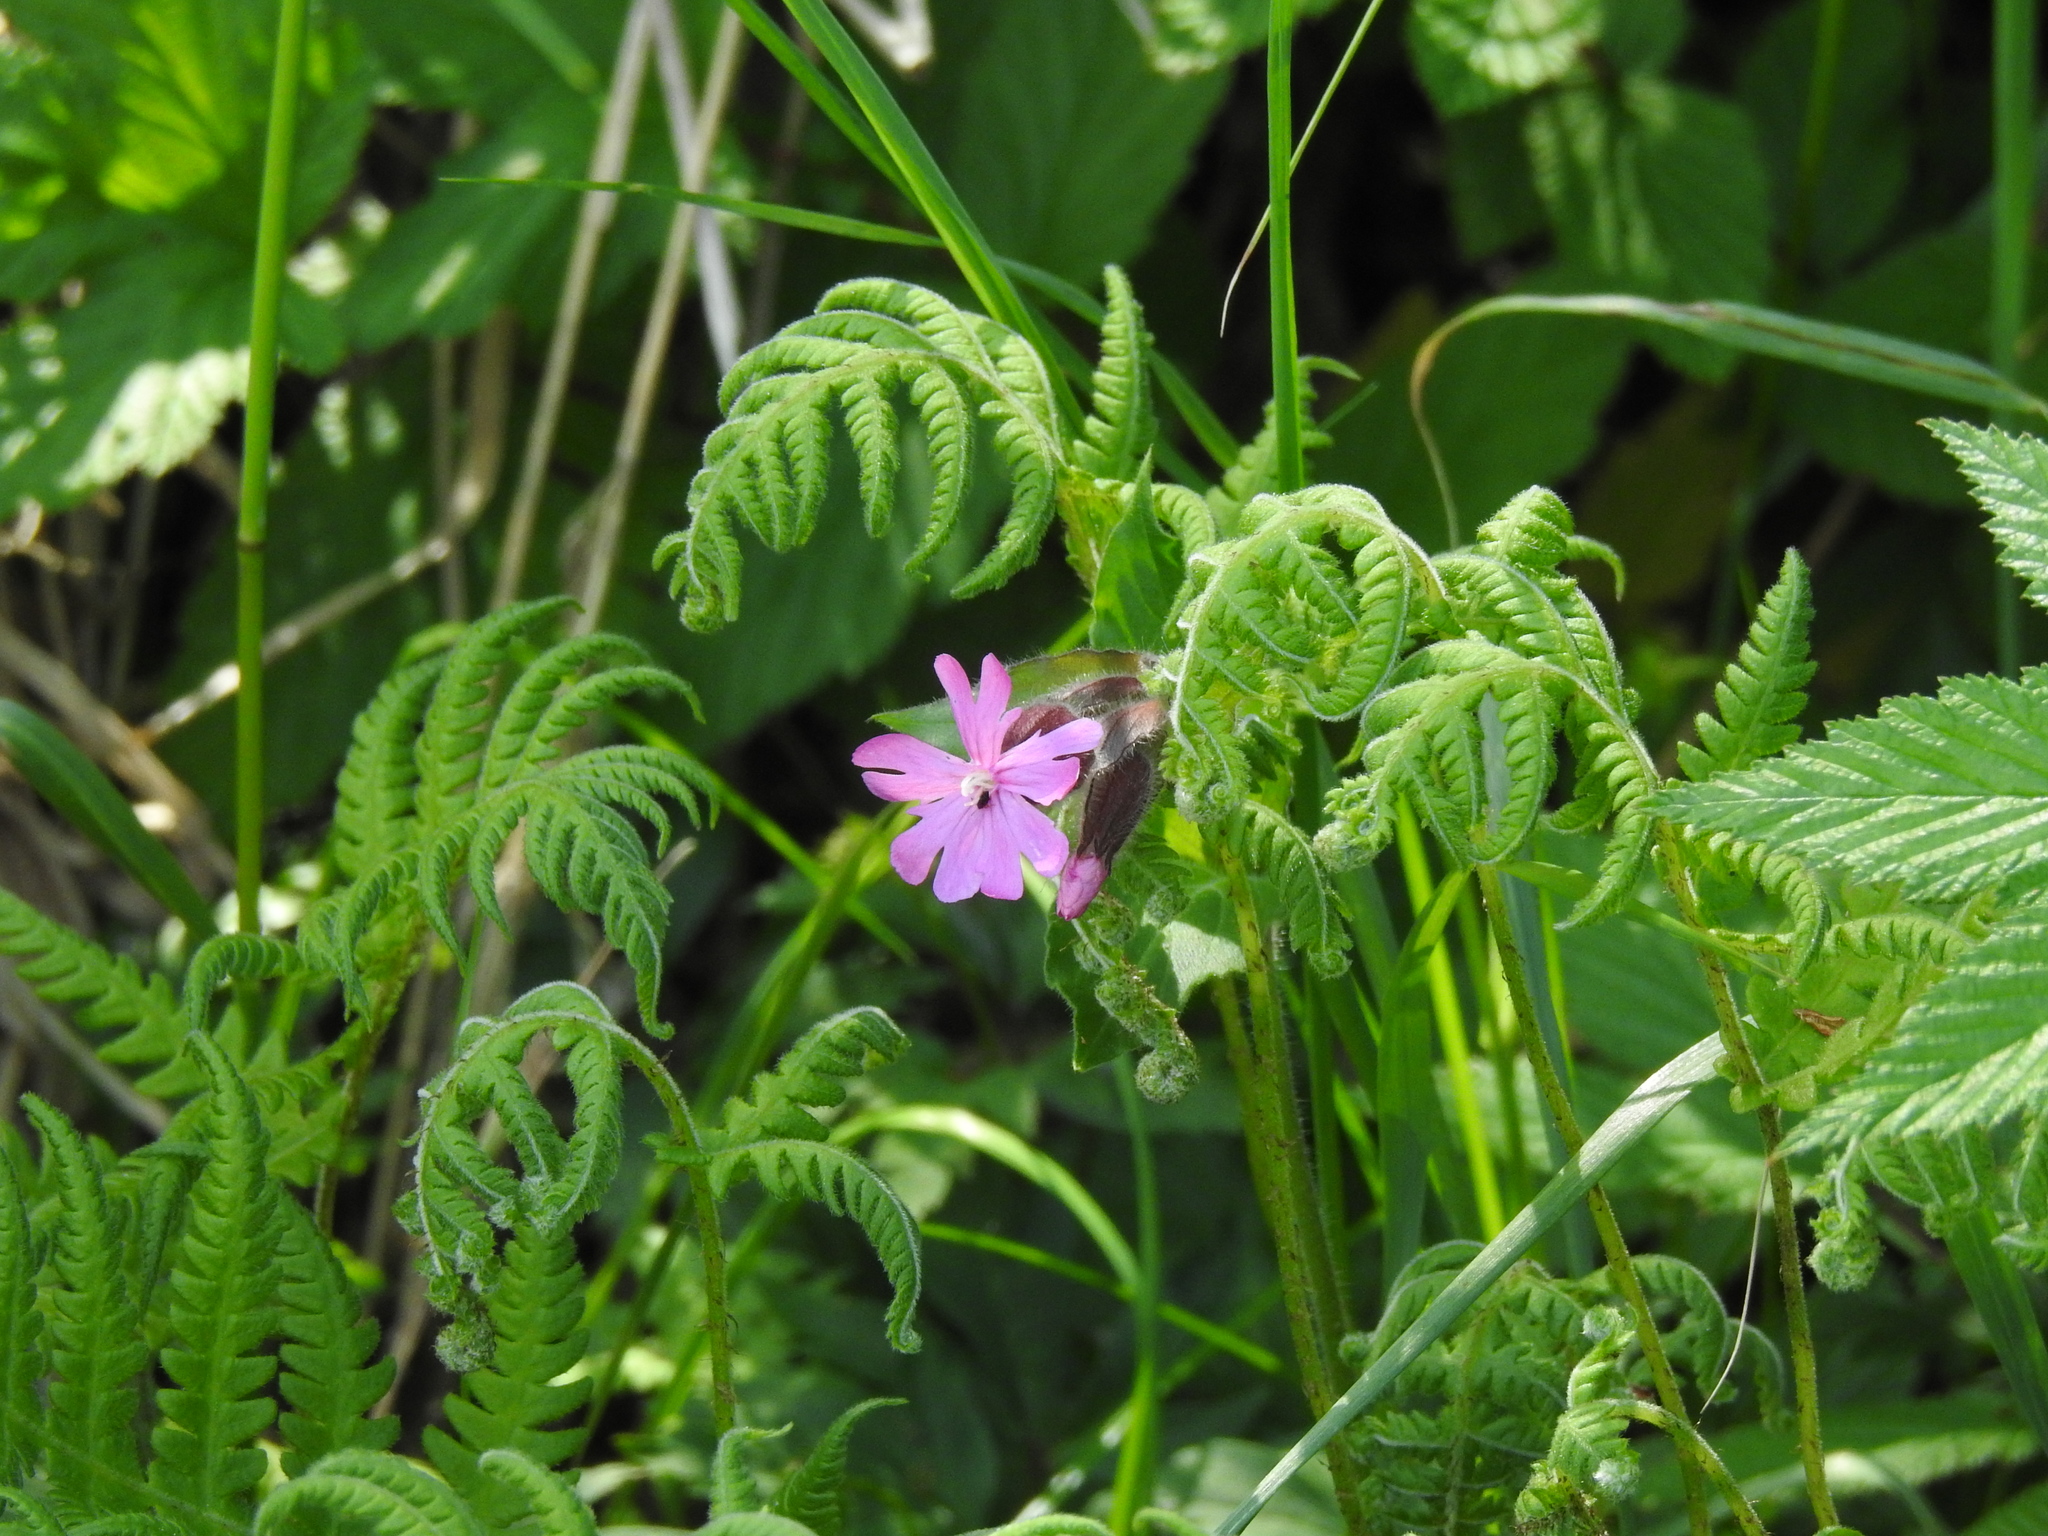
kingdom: Plantae
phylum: Tracheophyta
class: Magnoliopsida
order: Caryophyllales
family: Caryophyllaceae
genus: Silene
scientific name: Silene dioica
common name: Red campion
